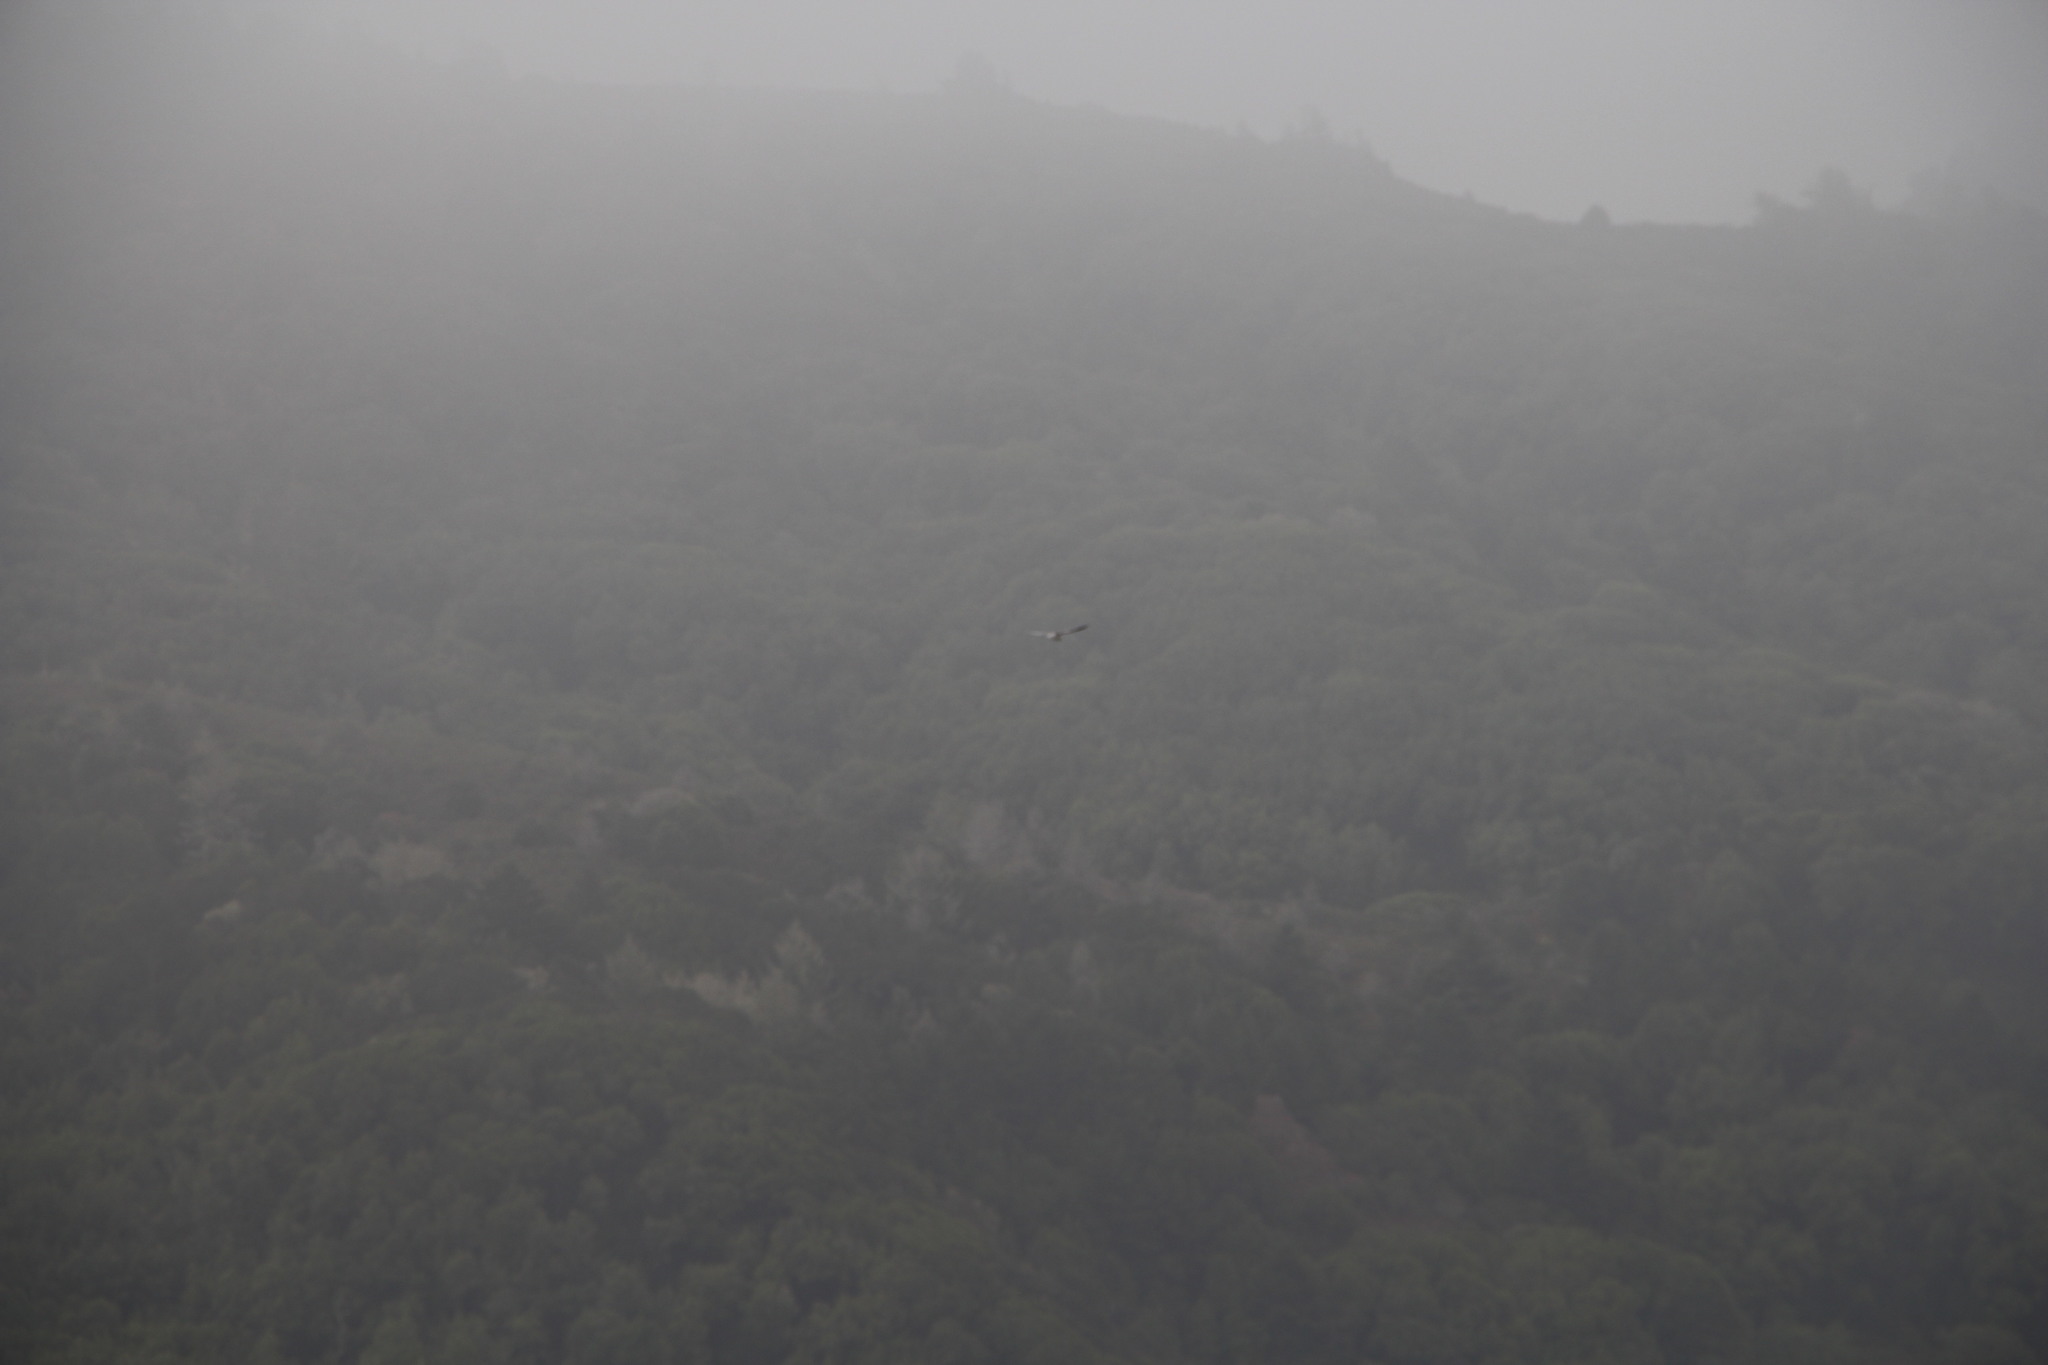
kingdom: Animalia
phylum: Chordata
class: Aves
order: Accipitriformes
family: Accipitridae
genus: Elanus
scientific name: Elanus leucurus
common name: White-tailed kite
